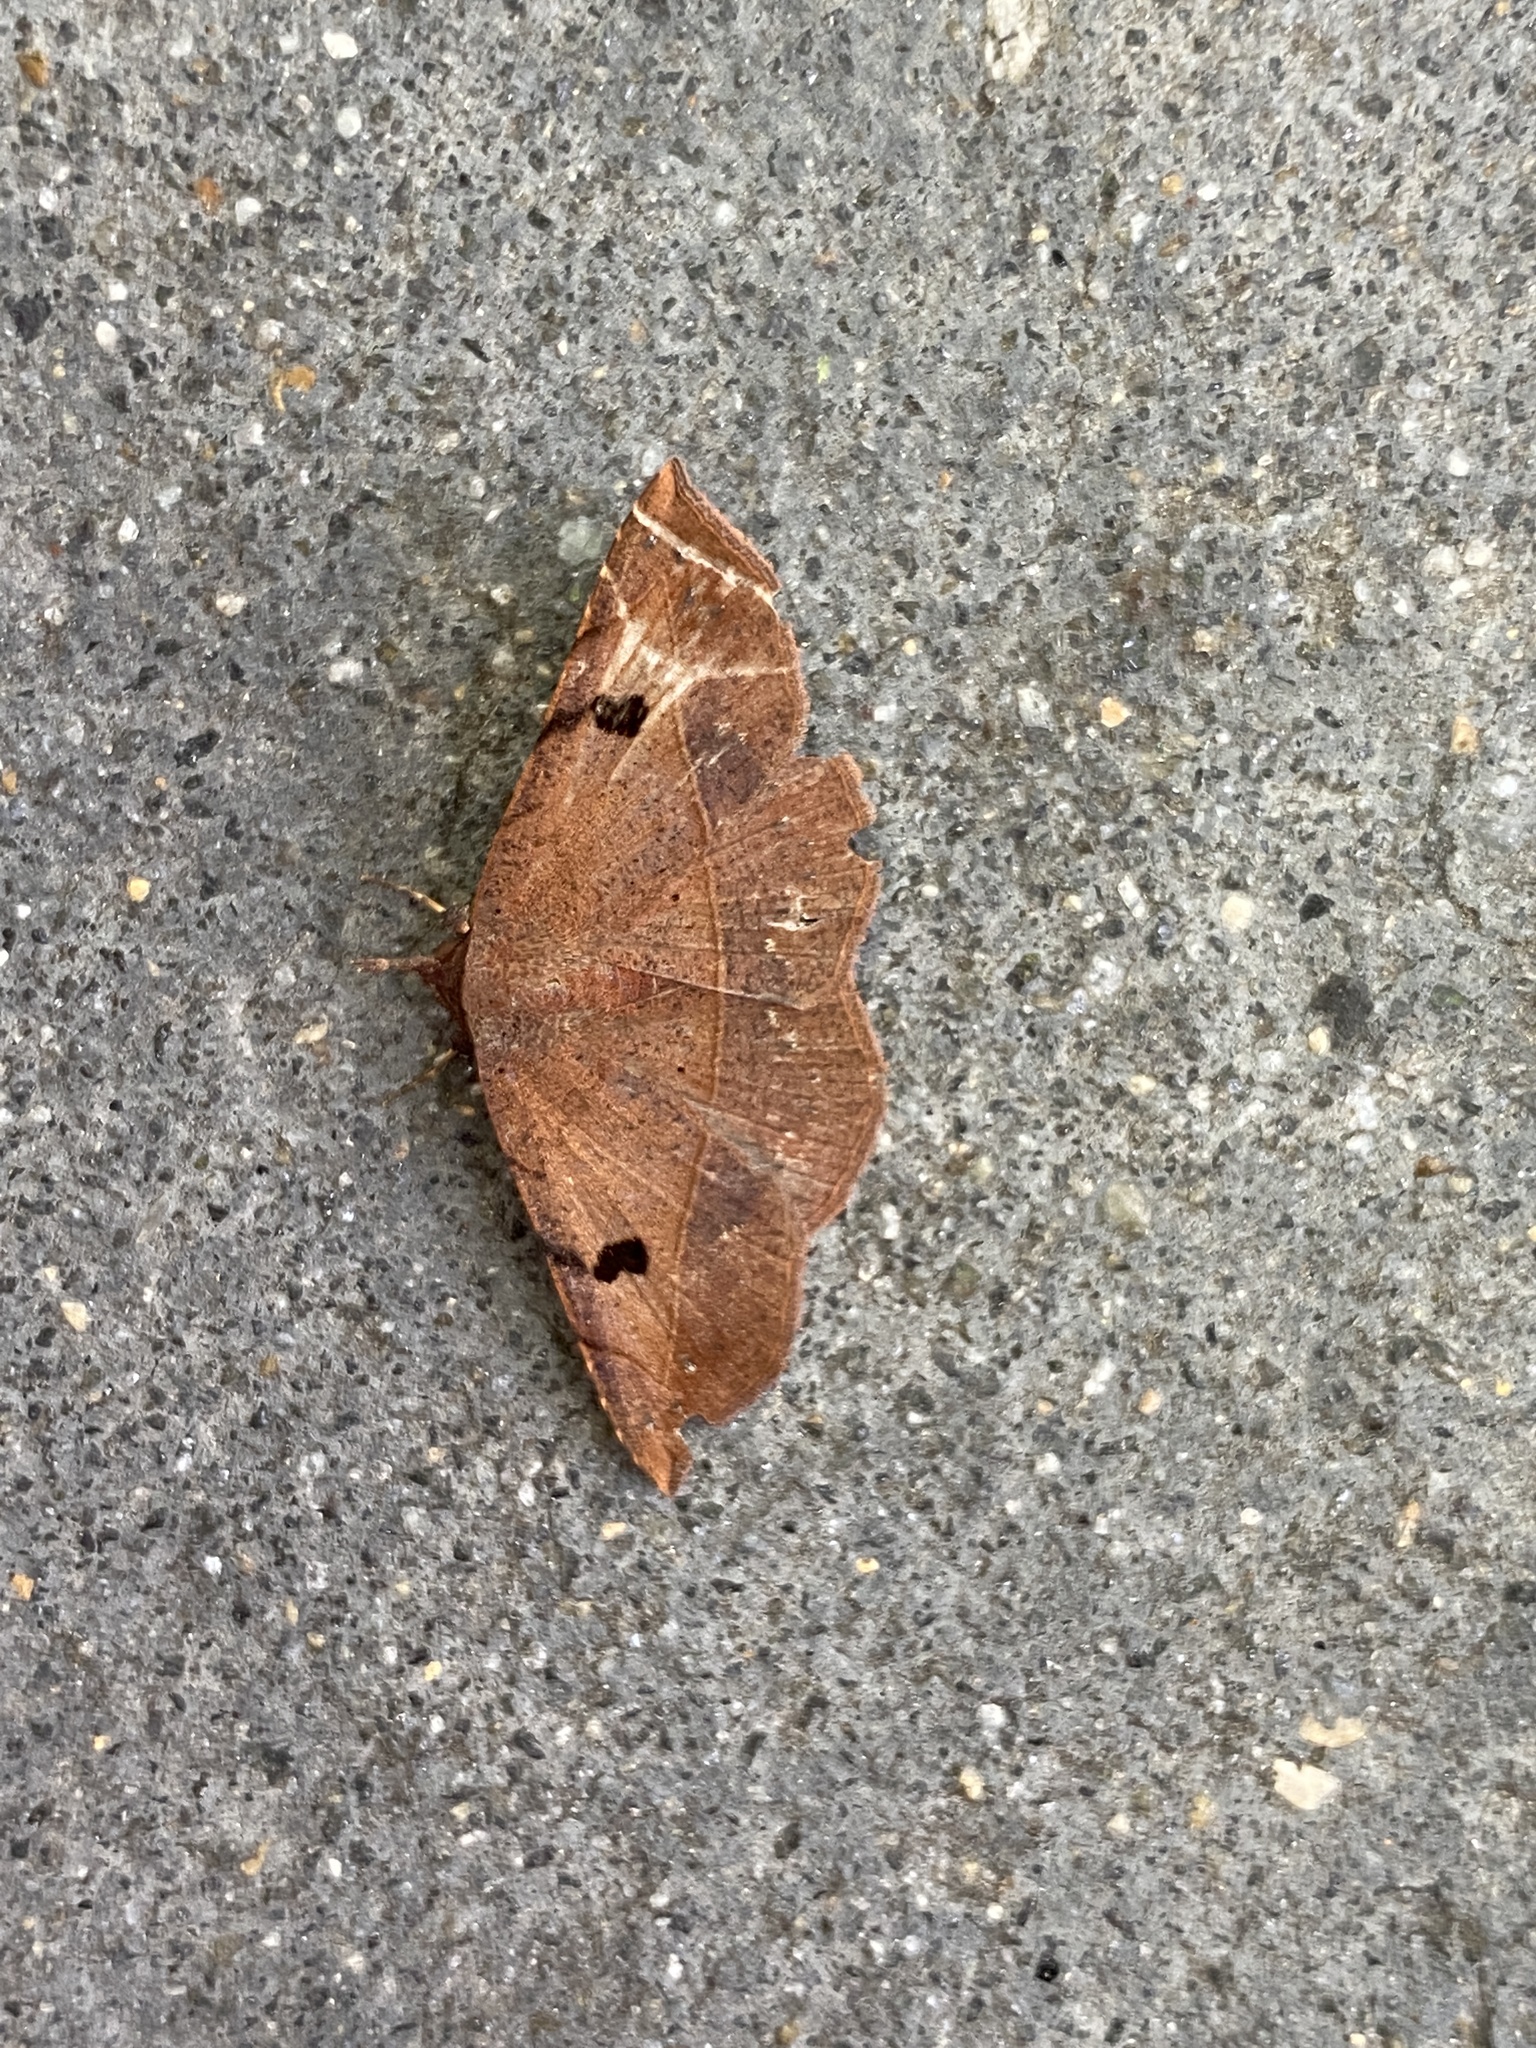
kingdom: Animalia
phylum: Arthropoda
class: Insecta
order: Lepidoptera
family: Erebidae
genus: Metallata
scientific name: Metallata absumens
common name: Brown leaf mimic
